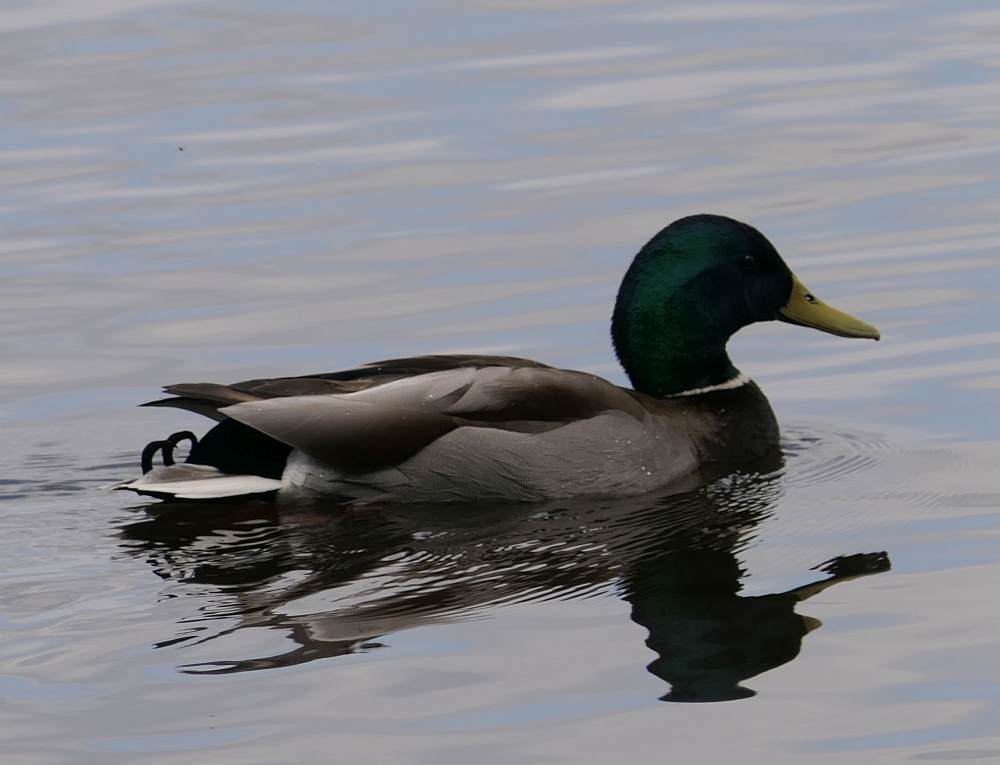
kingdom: Animalia
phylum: Chordata
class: Aves
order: Anseriformes
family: Anatidae
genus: Anas
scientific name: Anas platyrhynchos
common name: Mallard
